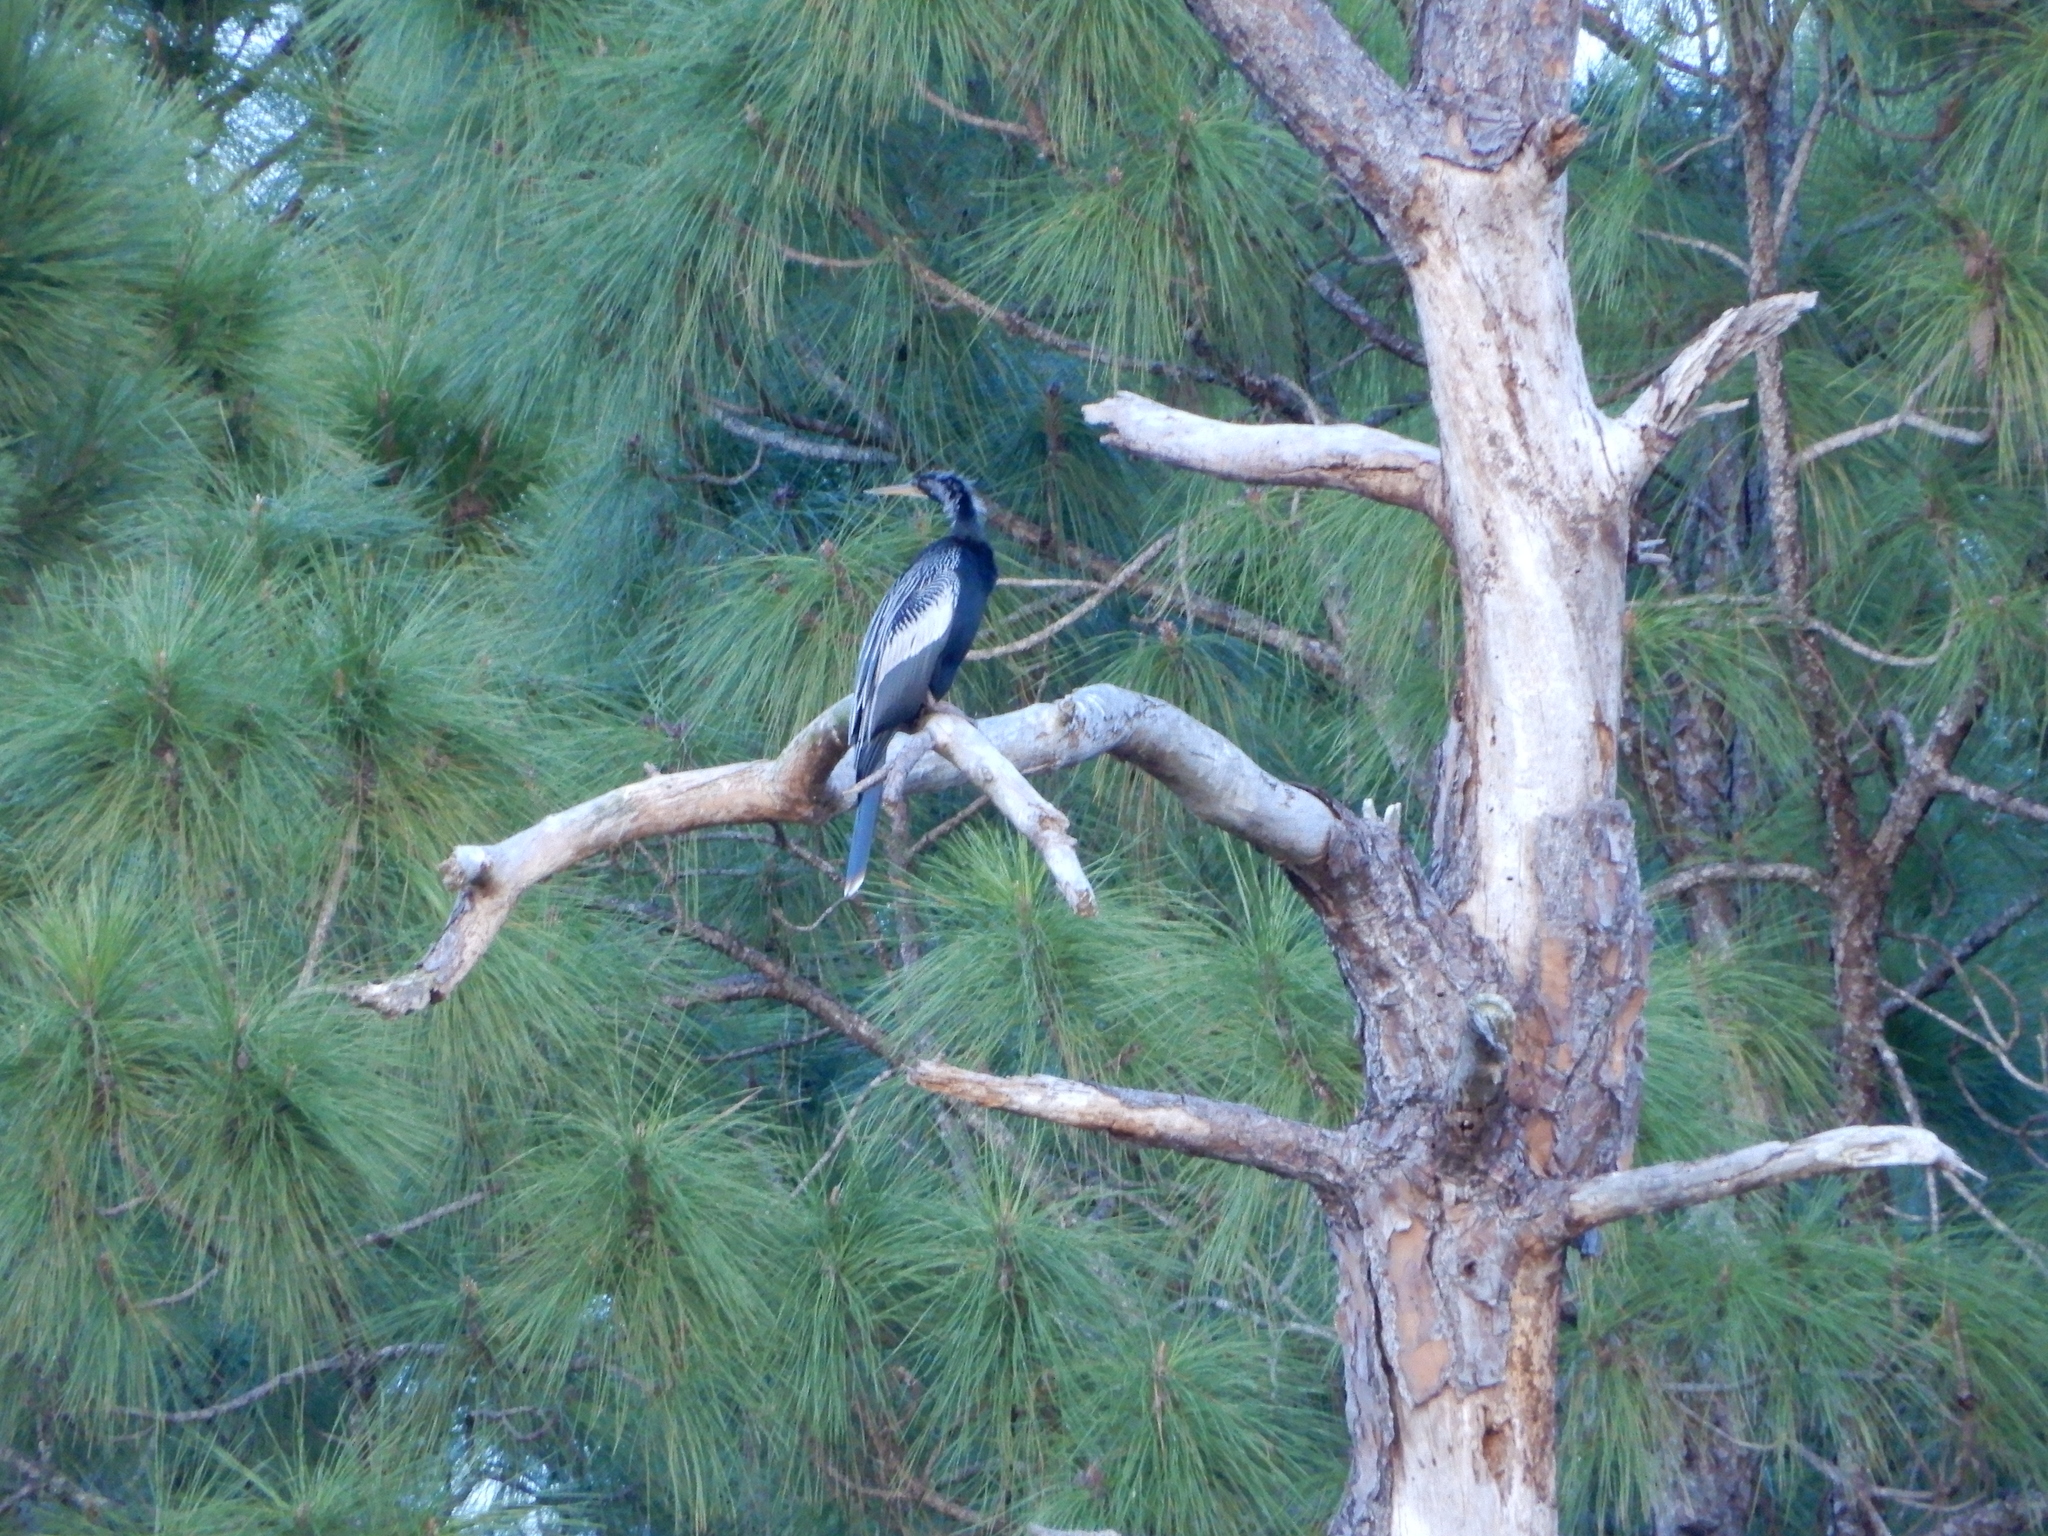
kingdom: Animalia
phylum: Chordata
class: Aves
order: Suliformes
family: Anhingidae
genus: Anhinga
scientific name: Anhinga anhinga
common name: Anhinga
